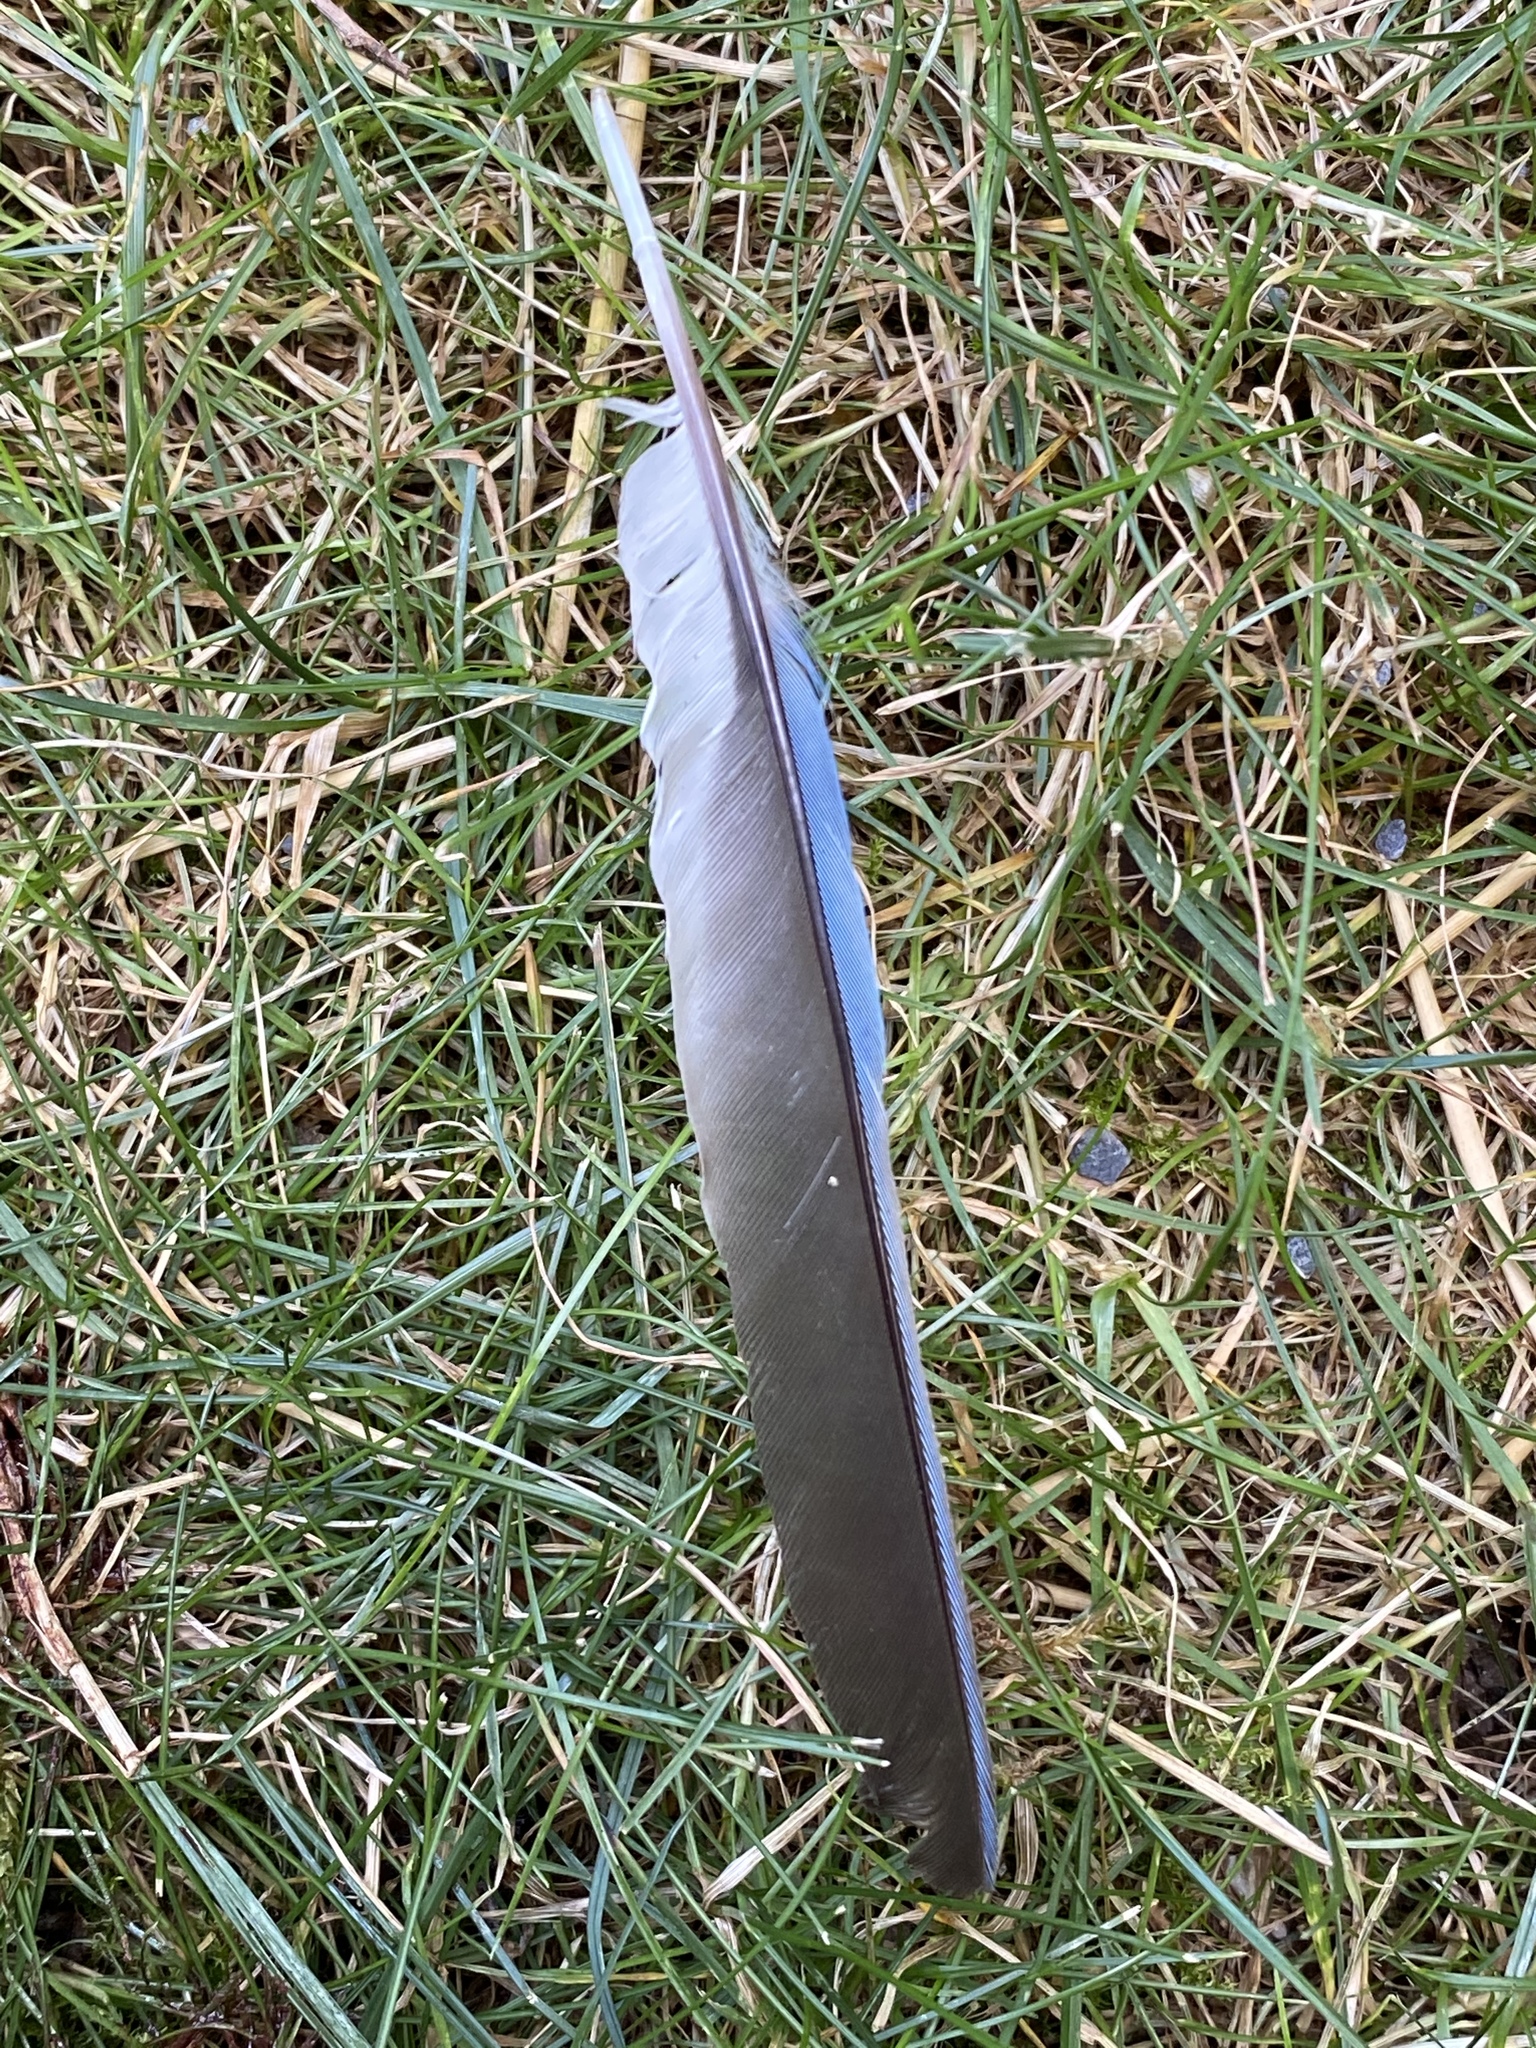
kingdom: Animalia
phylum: Chordata
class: Aves
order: Passeriformes
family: Corvidae
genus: Cyanocitta
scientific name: Cyanocitta cristata
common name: Blue jay
